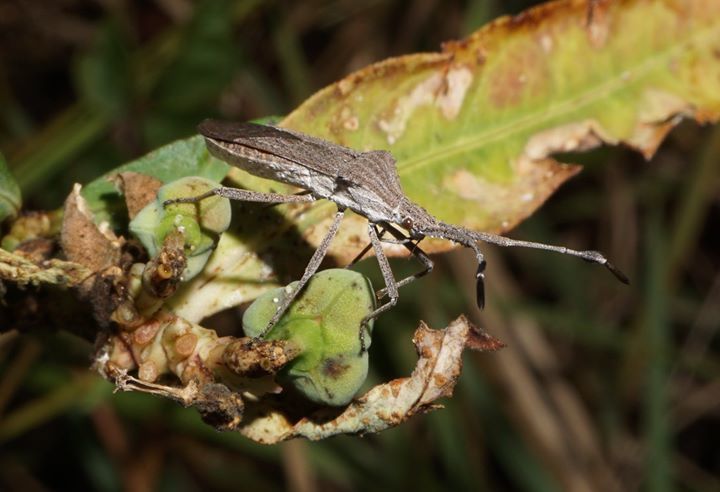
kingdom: Animalia
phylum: Arthropoda
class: Insecta
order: Hemiptera
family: Coreidae
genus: Chariesterus
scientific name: Chariesterus antennator
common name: Flat horned coreid
